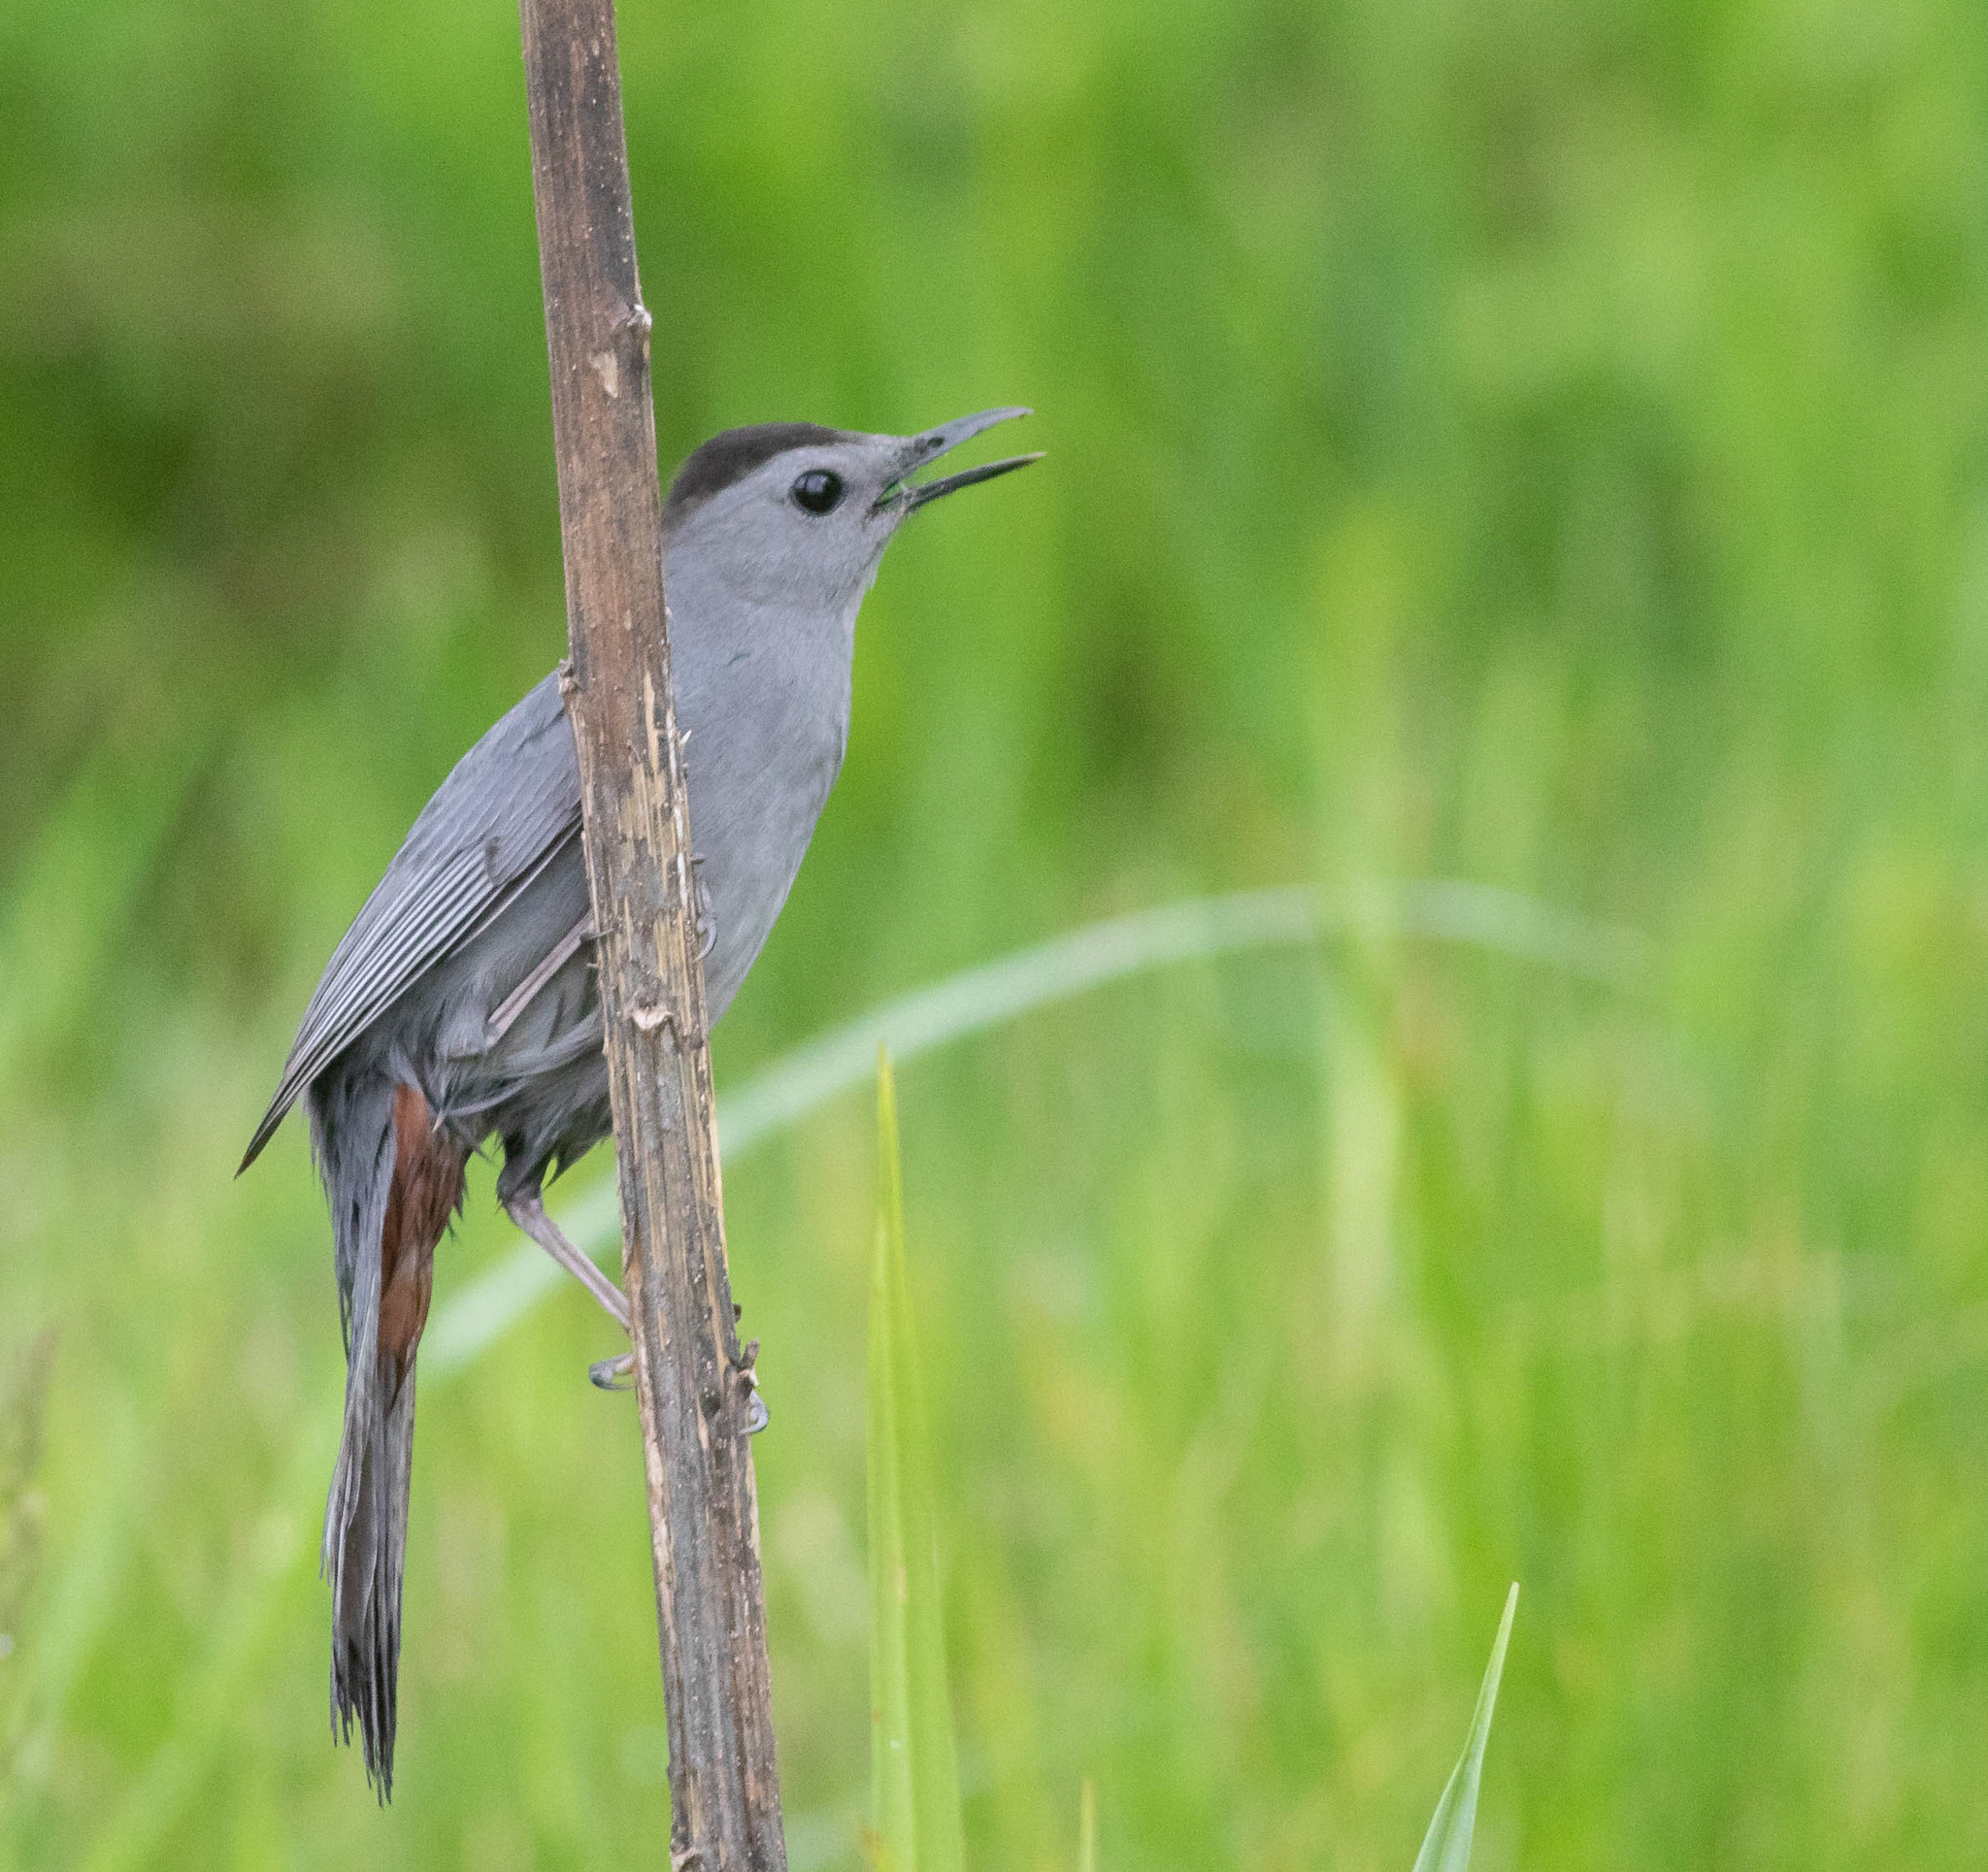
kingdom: Animalia
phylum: Chordata
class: Aves
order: Passeriformes
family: Mimidae
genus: Dumetella
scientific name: Dumetella carolinensis
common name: Gray catbird
